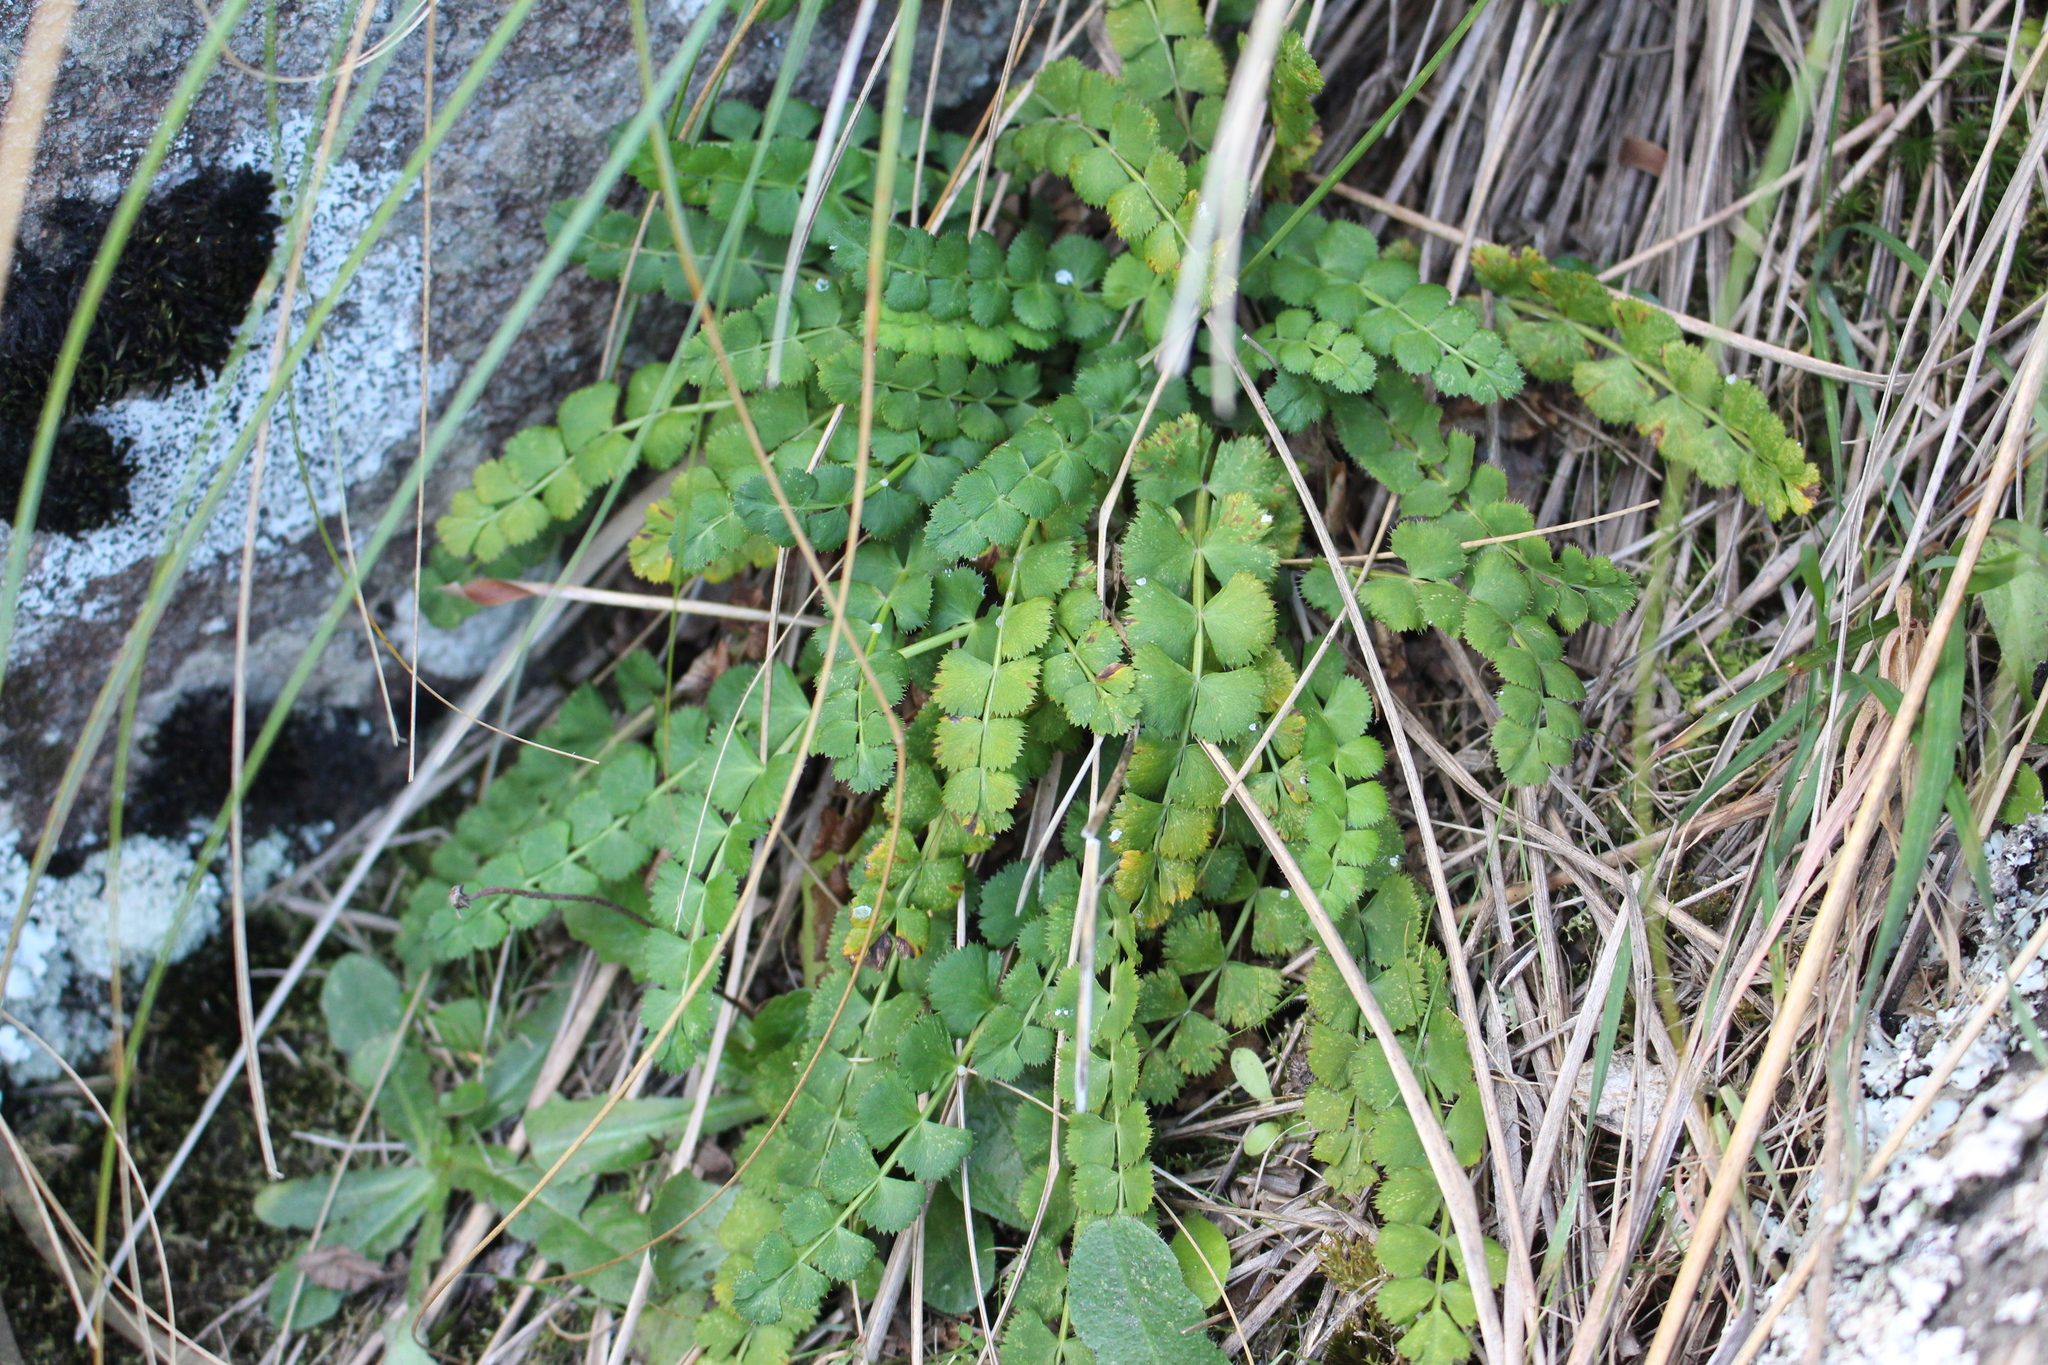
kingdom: Plantae
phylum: Tracheophyta
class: Magnoliopsida
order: Apiales
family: Apiaceae
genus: Anisotome
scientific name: Anisotome aromatica
